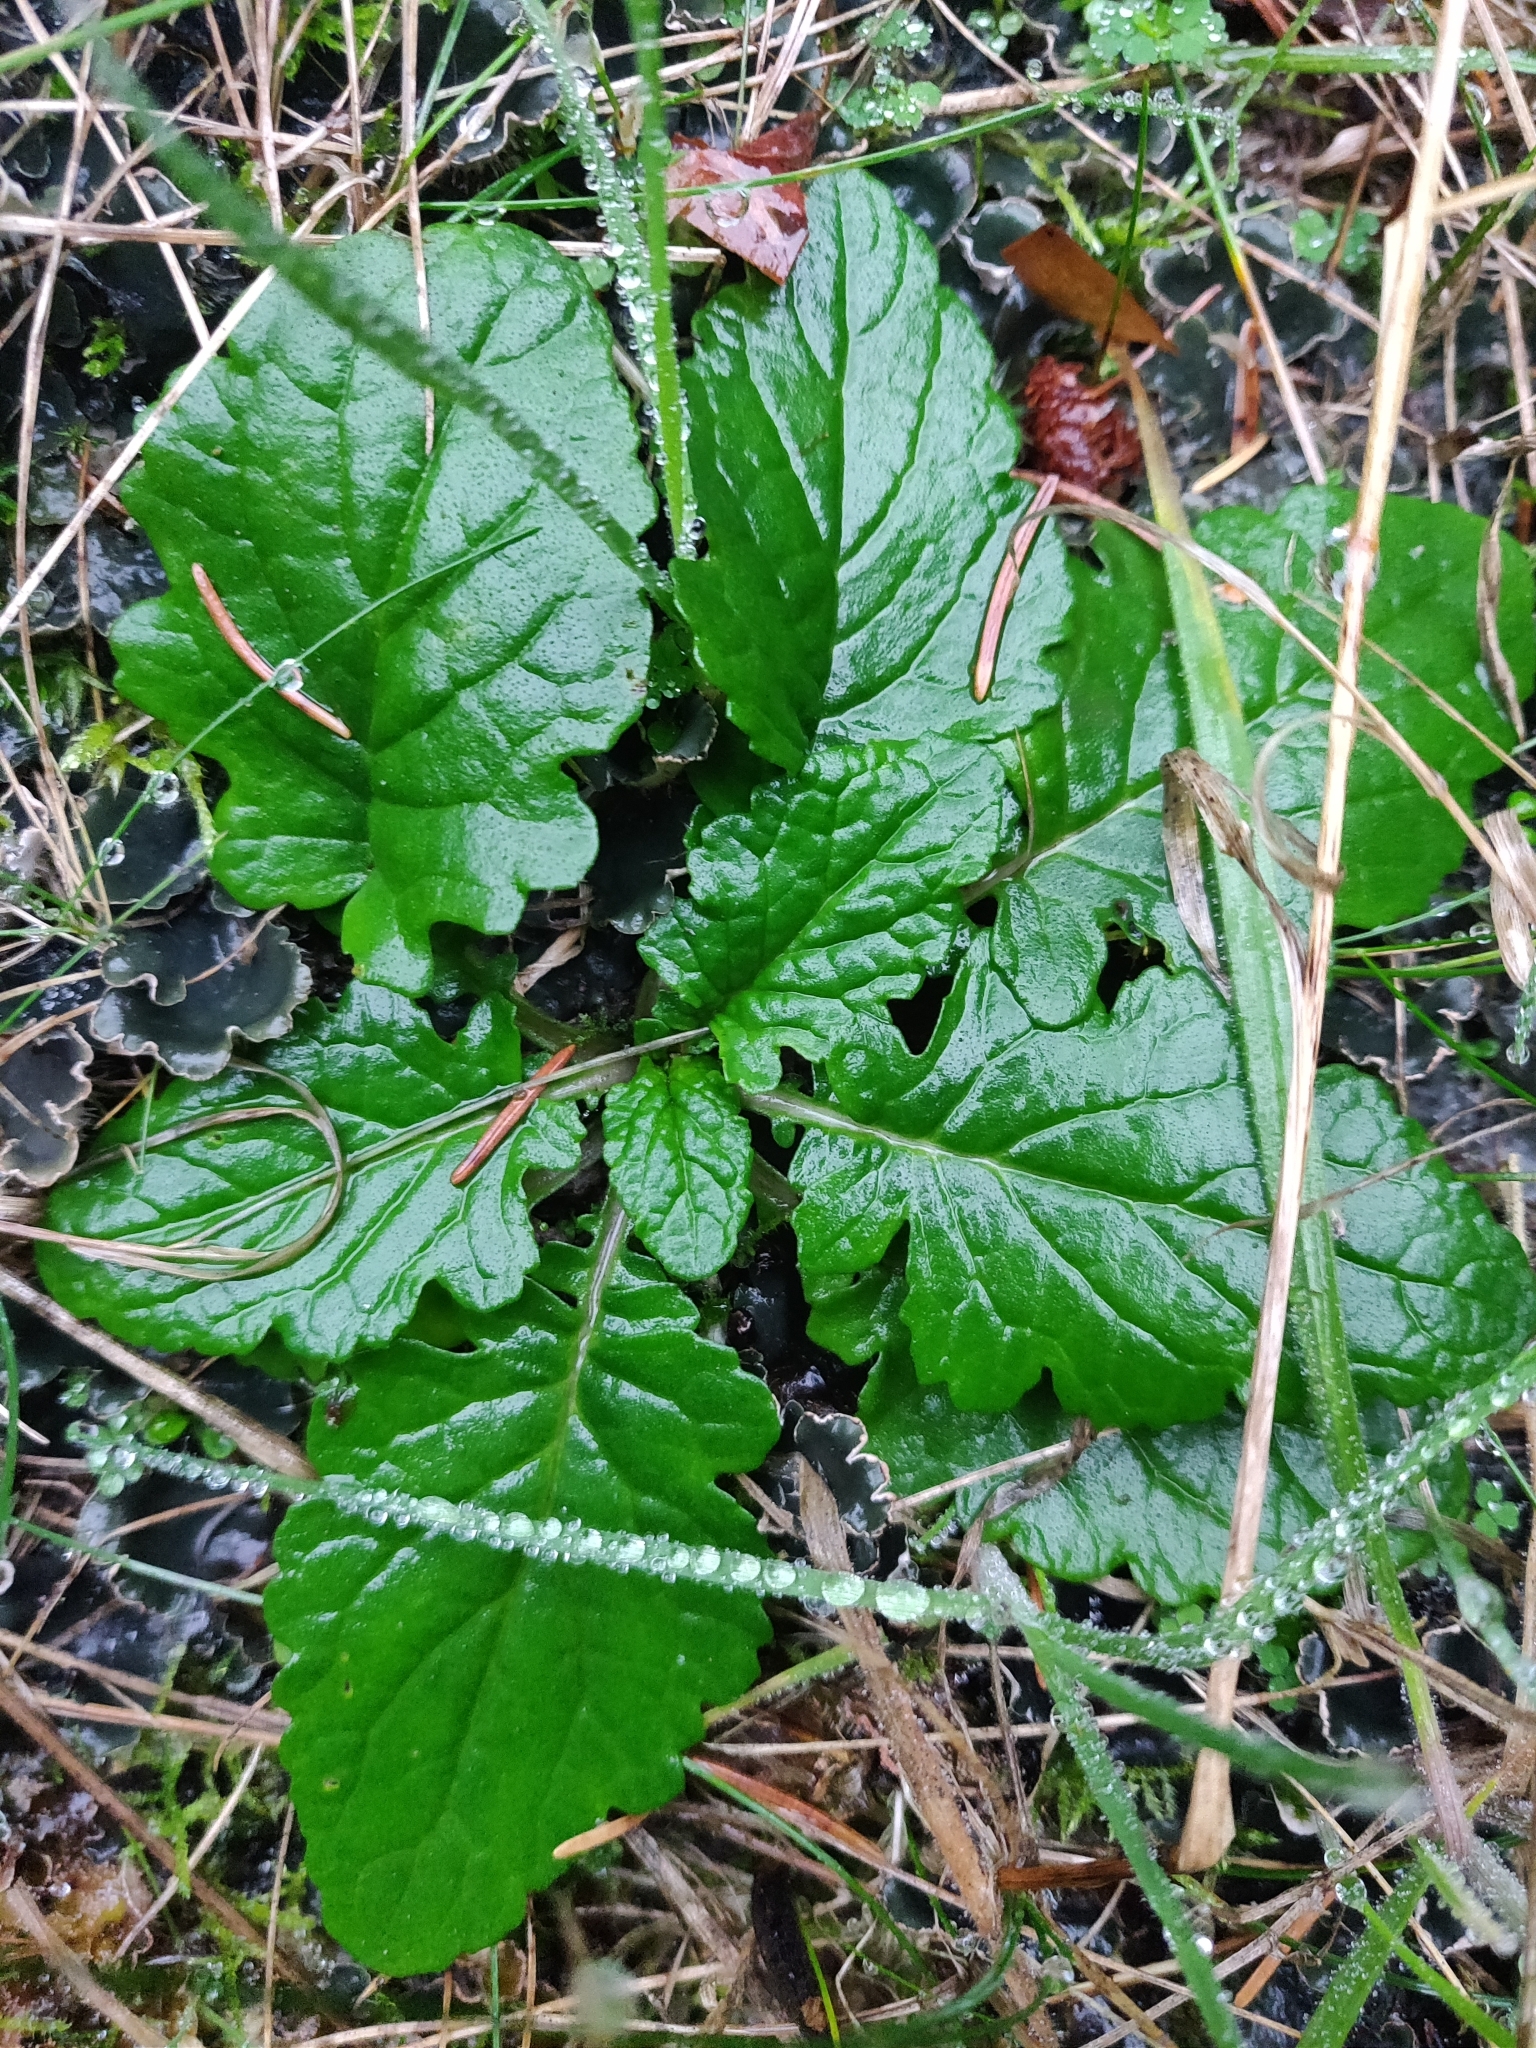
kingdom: Plantae
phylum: Tracheophyta
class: Magnoliopsida
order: Asterales
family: Asteraceae
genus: Jacobaea
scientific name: Jacobaea vulgaris
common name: Stinking willie
